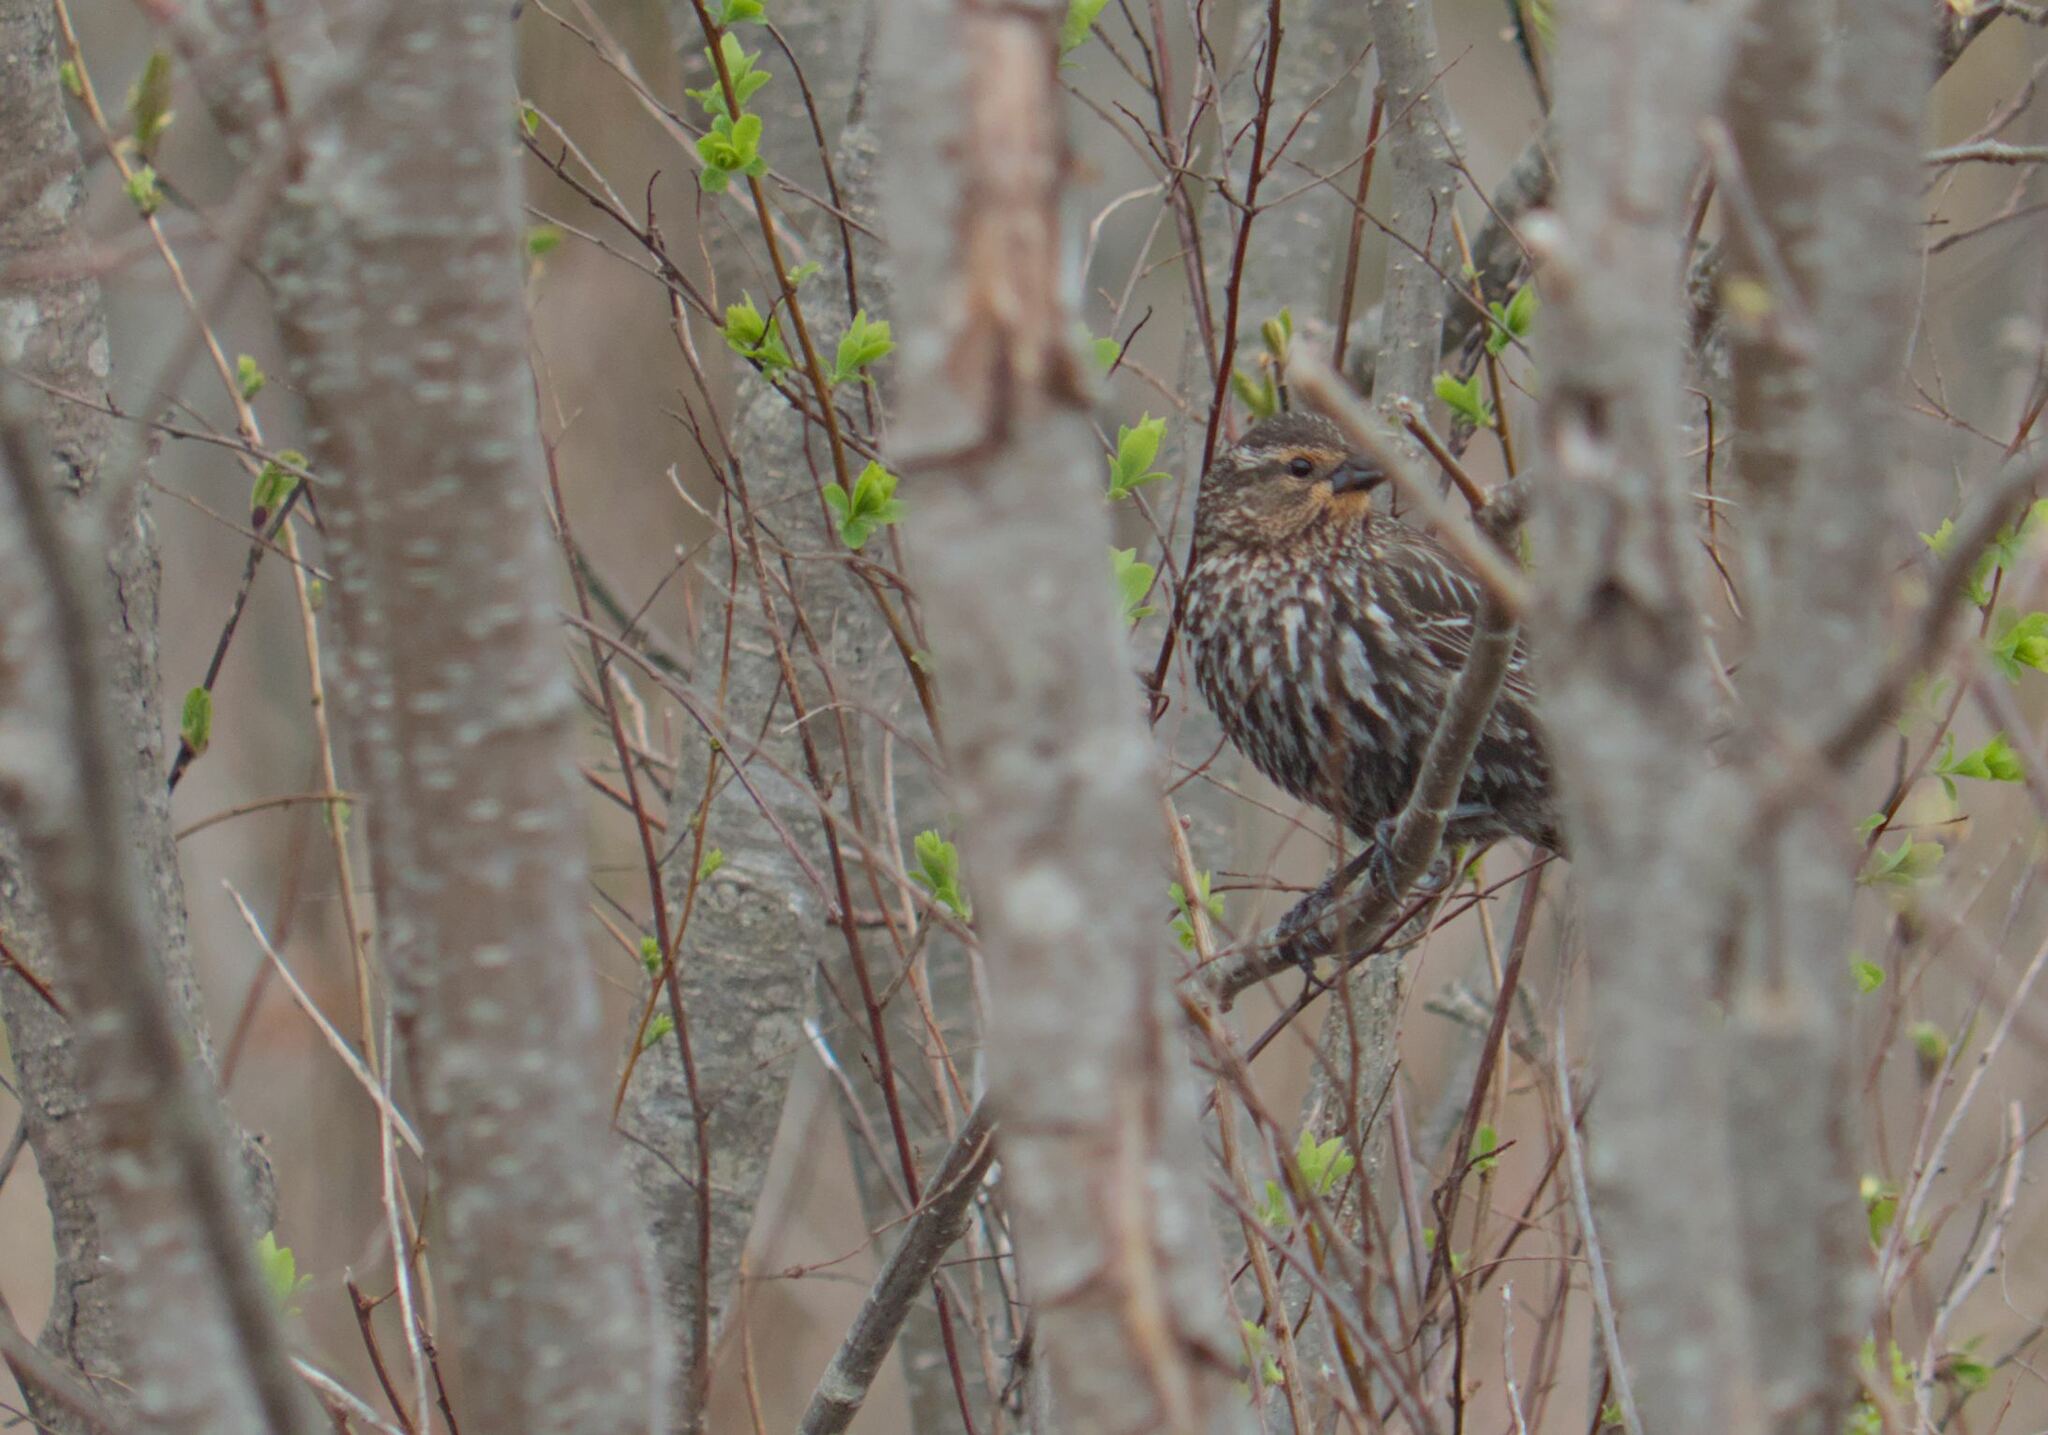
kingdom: Animalia
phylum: Chordata
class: Aves
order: Passeriformes
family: Icteridae
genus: Agelaius
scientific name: Agelaius phoeniceus
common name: Red-winged blackbird
